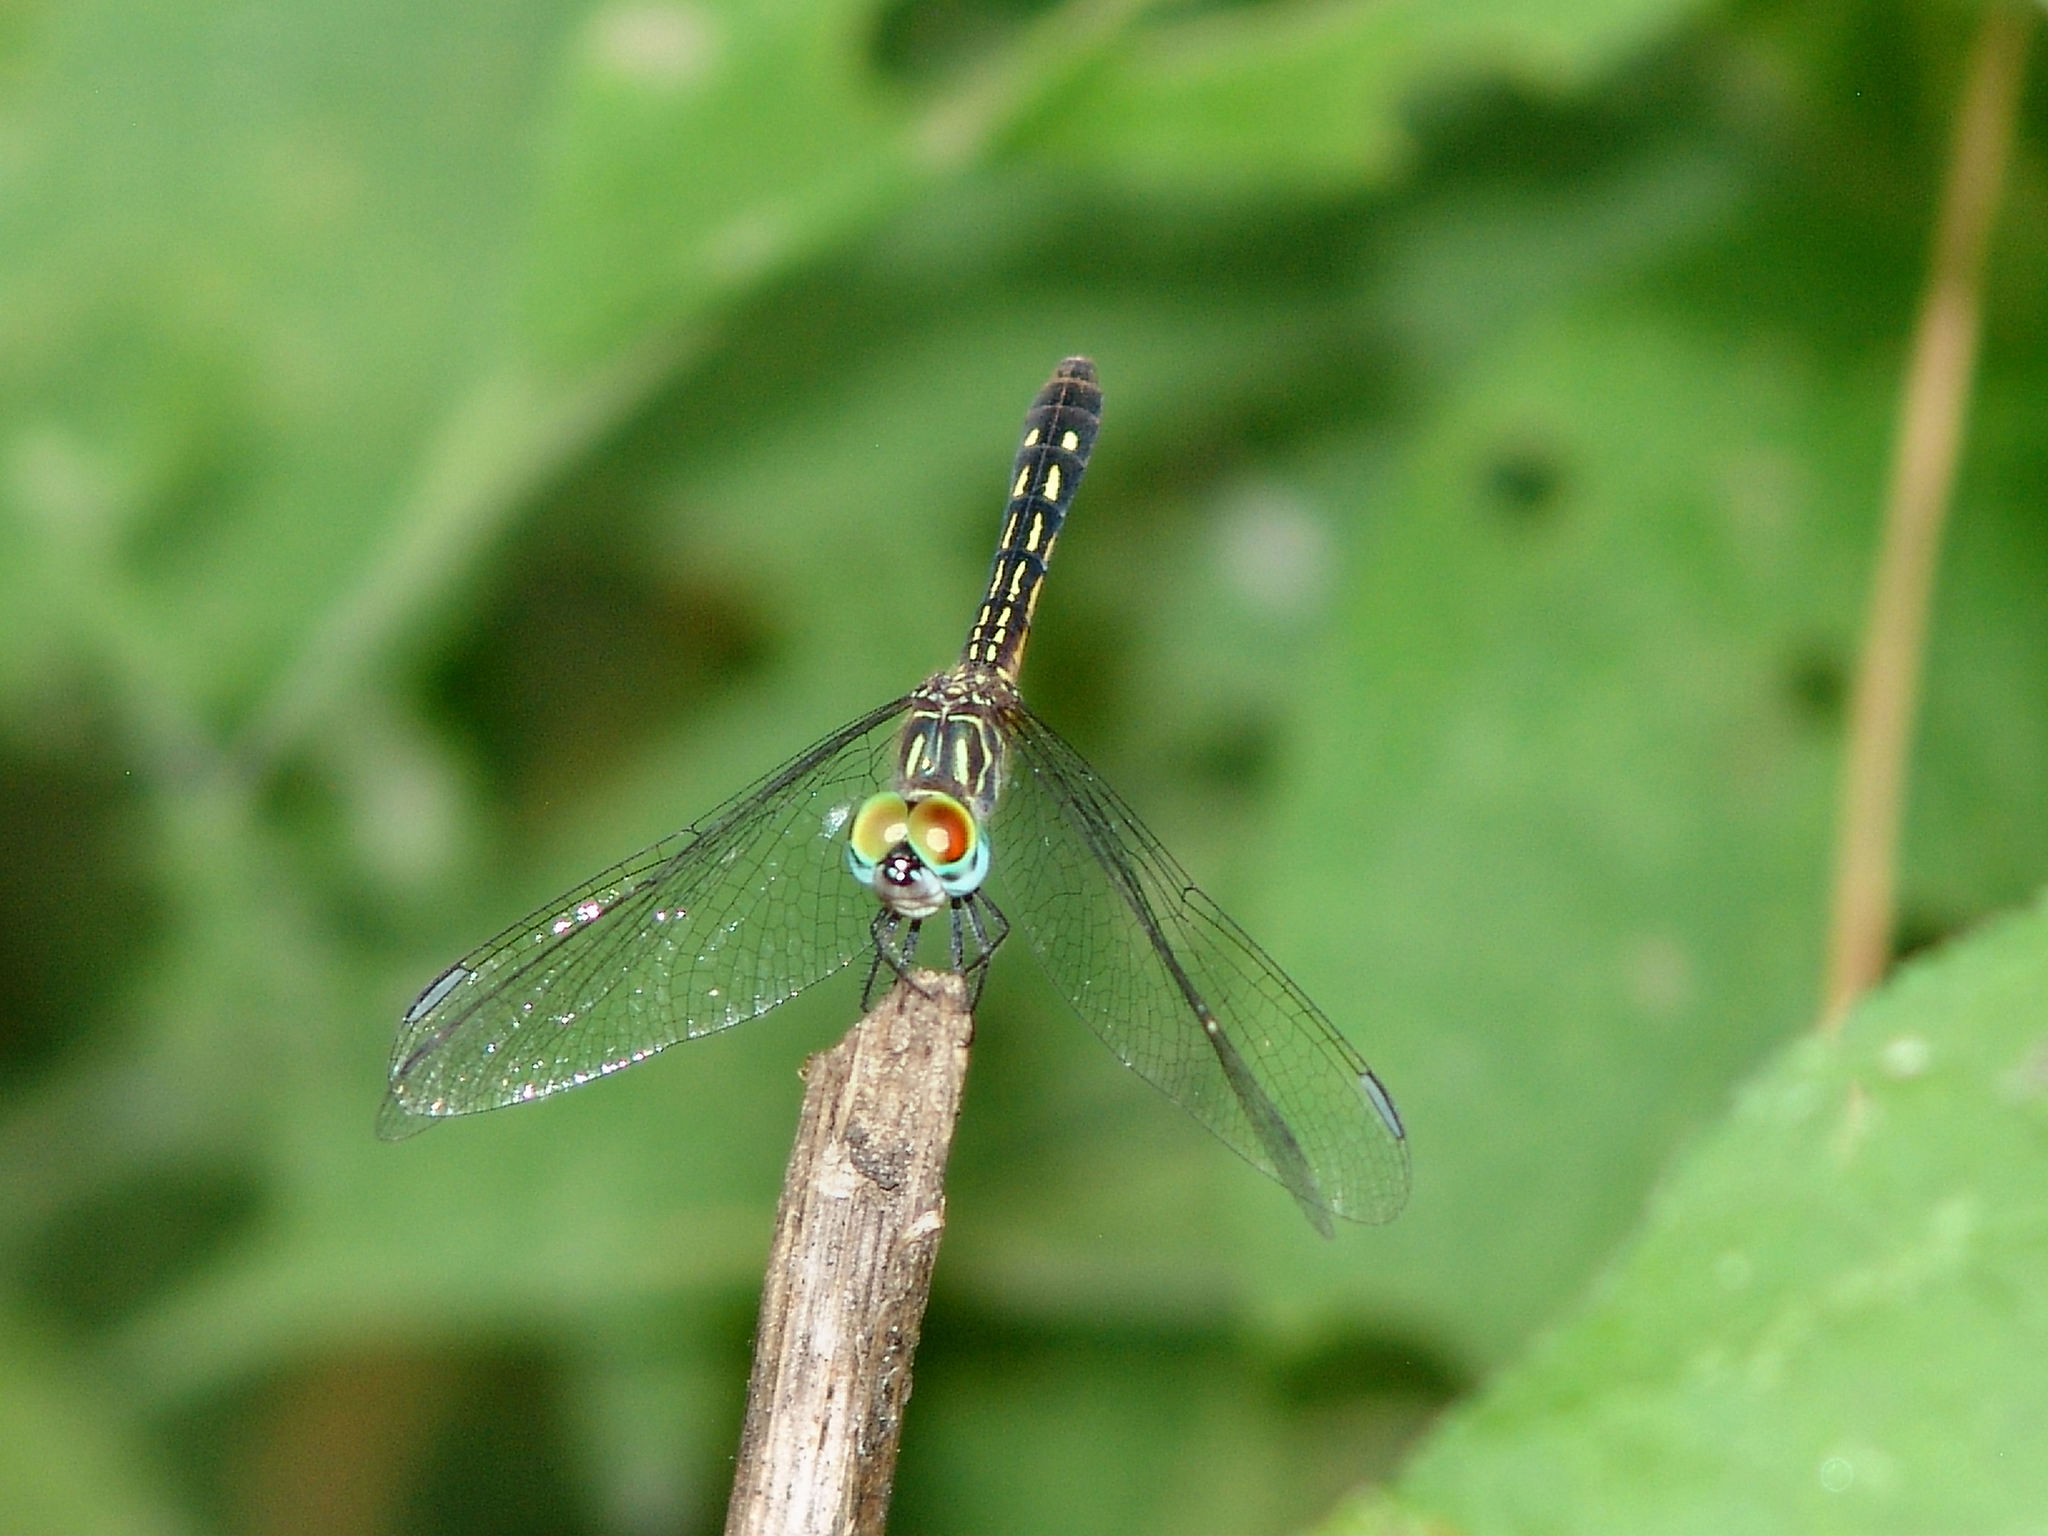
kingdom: Animalia
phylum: Arthropoda
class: Insecta
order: Odonata
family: Libellulidae
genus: Pachydiplax
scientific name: Pachydiplax longipennis
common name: Blue dasher
